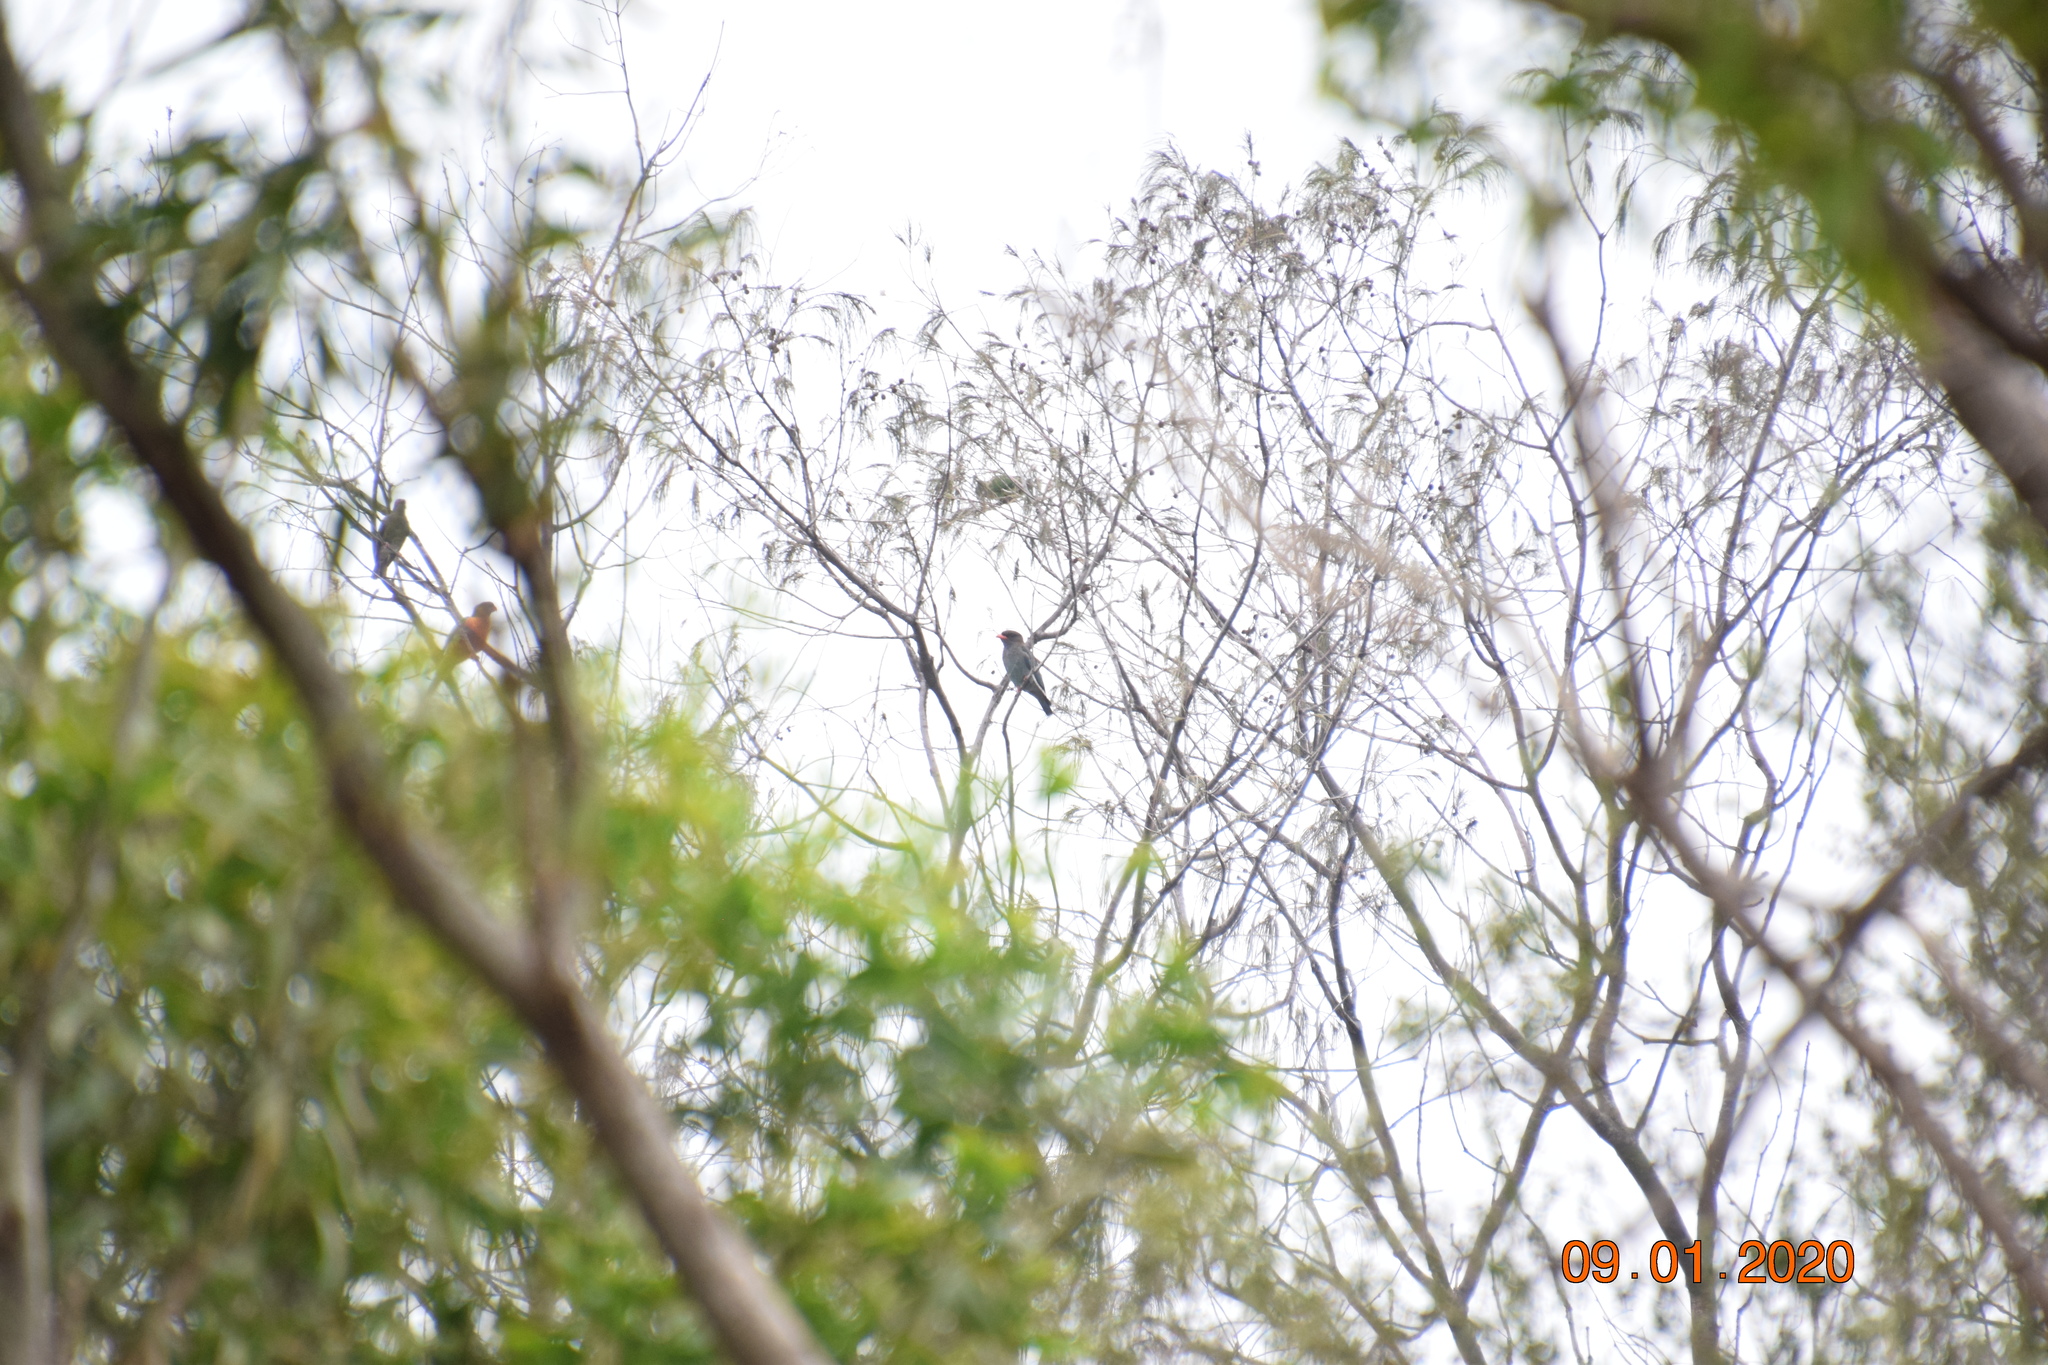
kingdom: Animalia
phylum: Chordata
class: Aves
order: Coraciiformes
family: Coraciidae
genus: Eurystomus
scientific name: Eurystomus orientalis
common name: Oriental dollarbird
